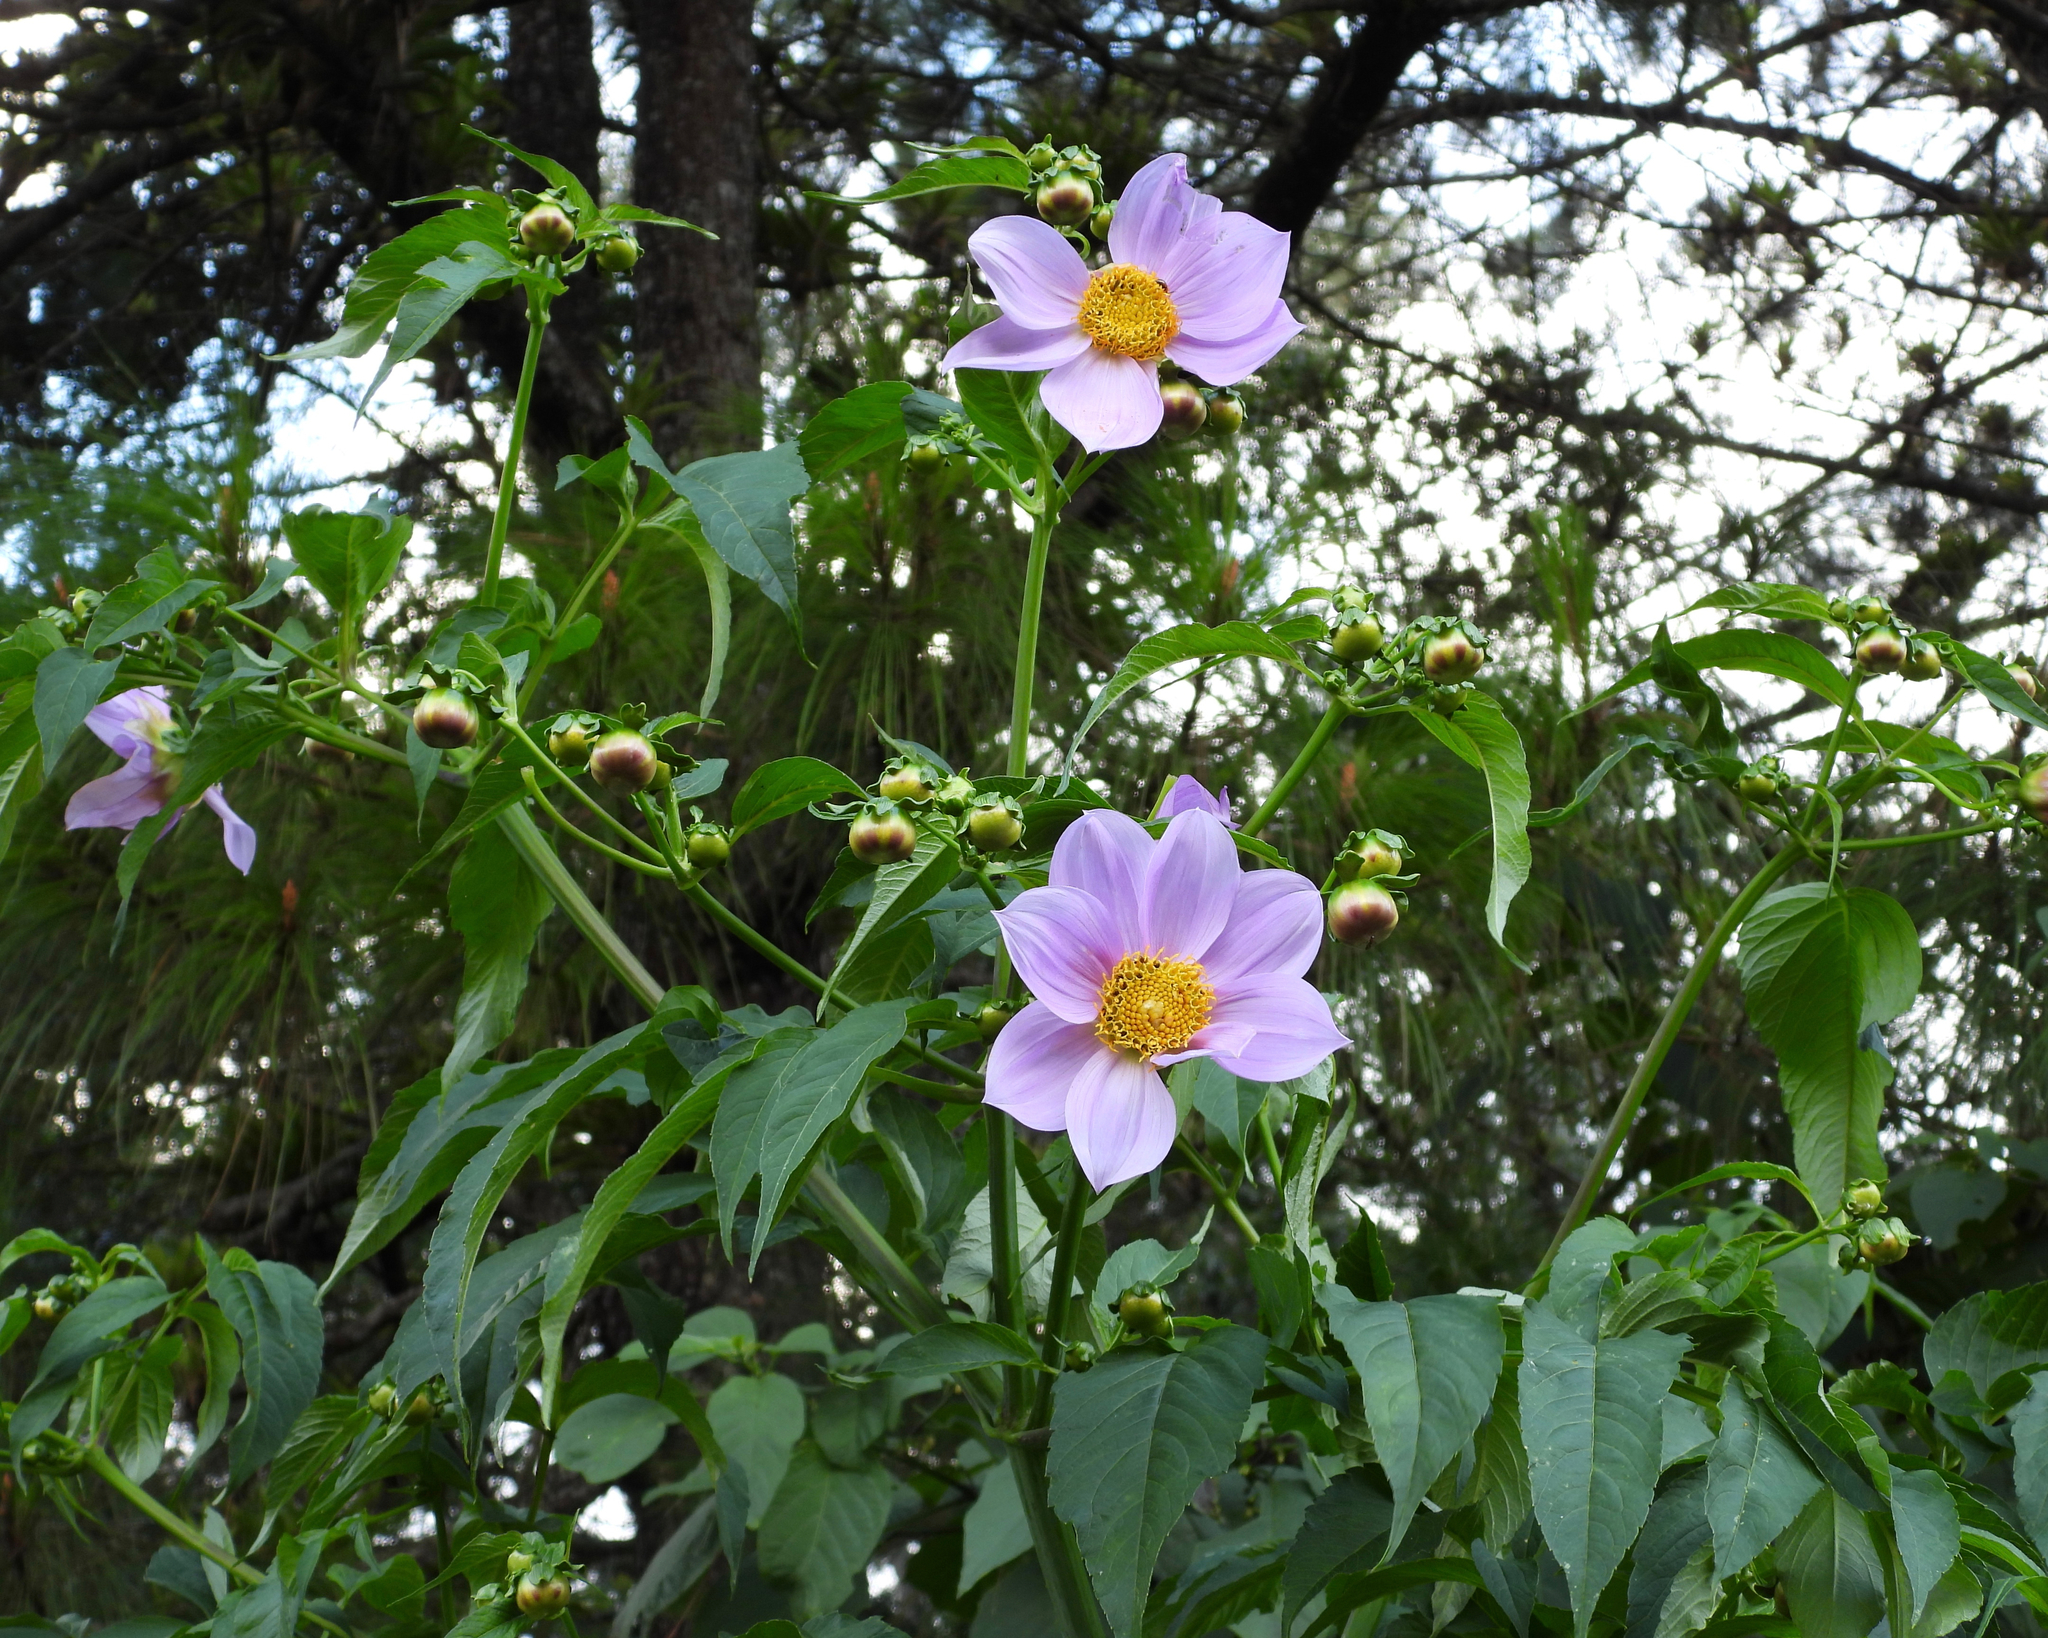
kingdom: Plantae
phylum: Tracheophyta
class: Magnoliopsida
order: Asterales
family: Asteraceae
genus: Dahlia
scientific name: Dahlia imperialis
